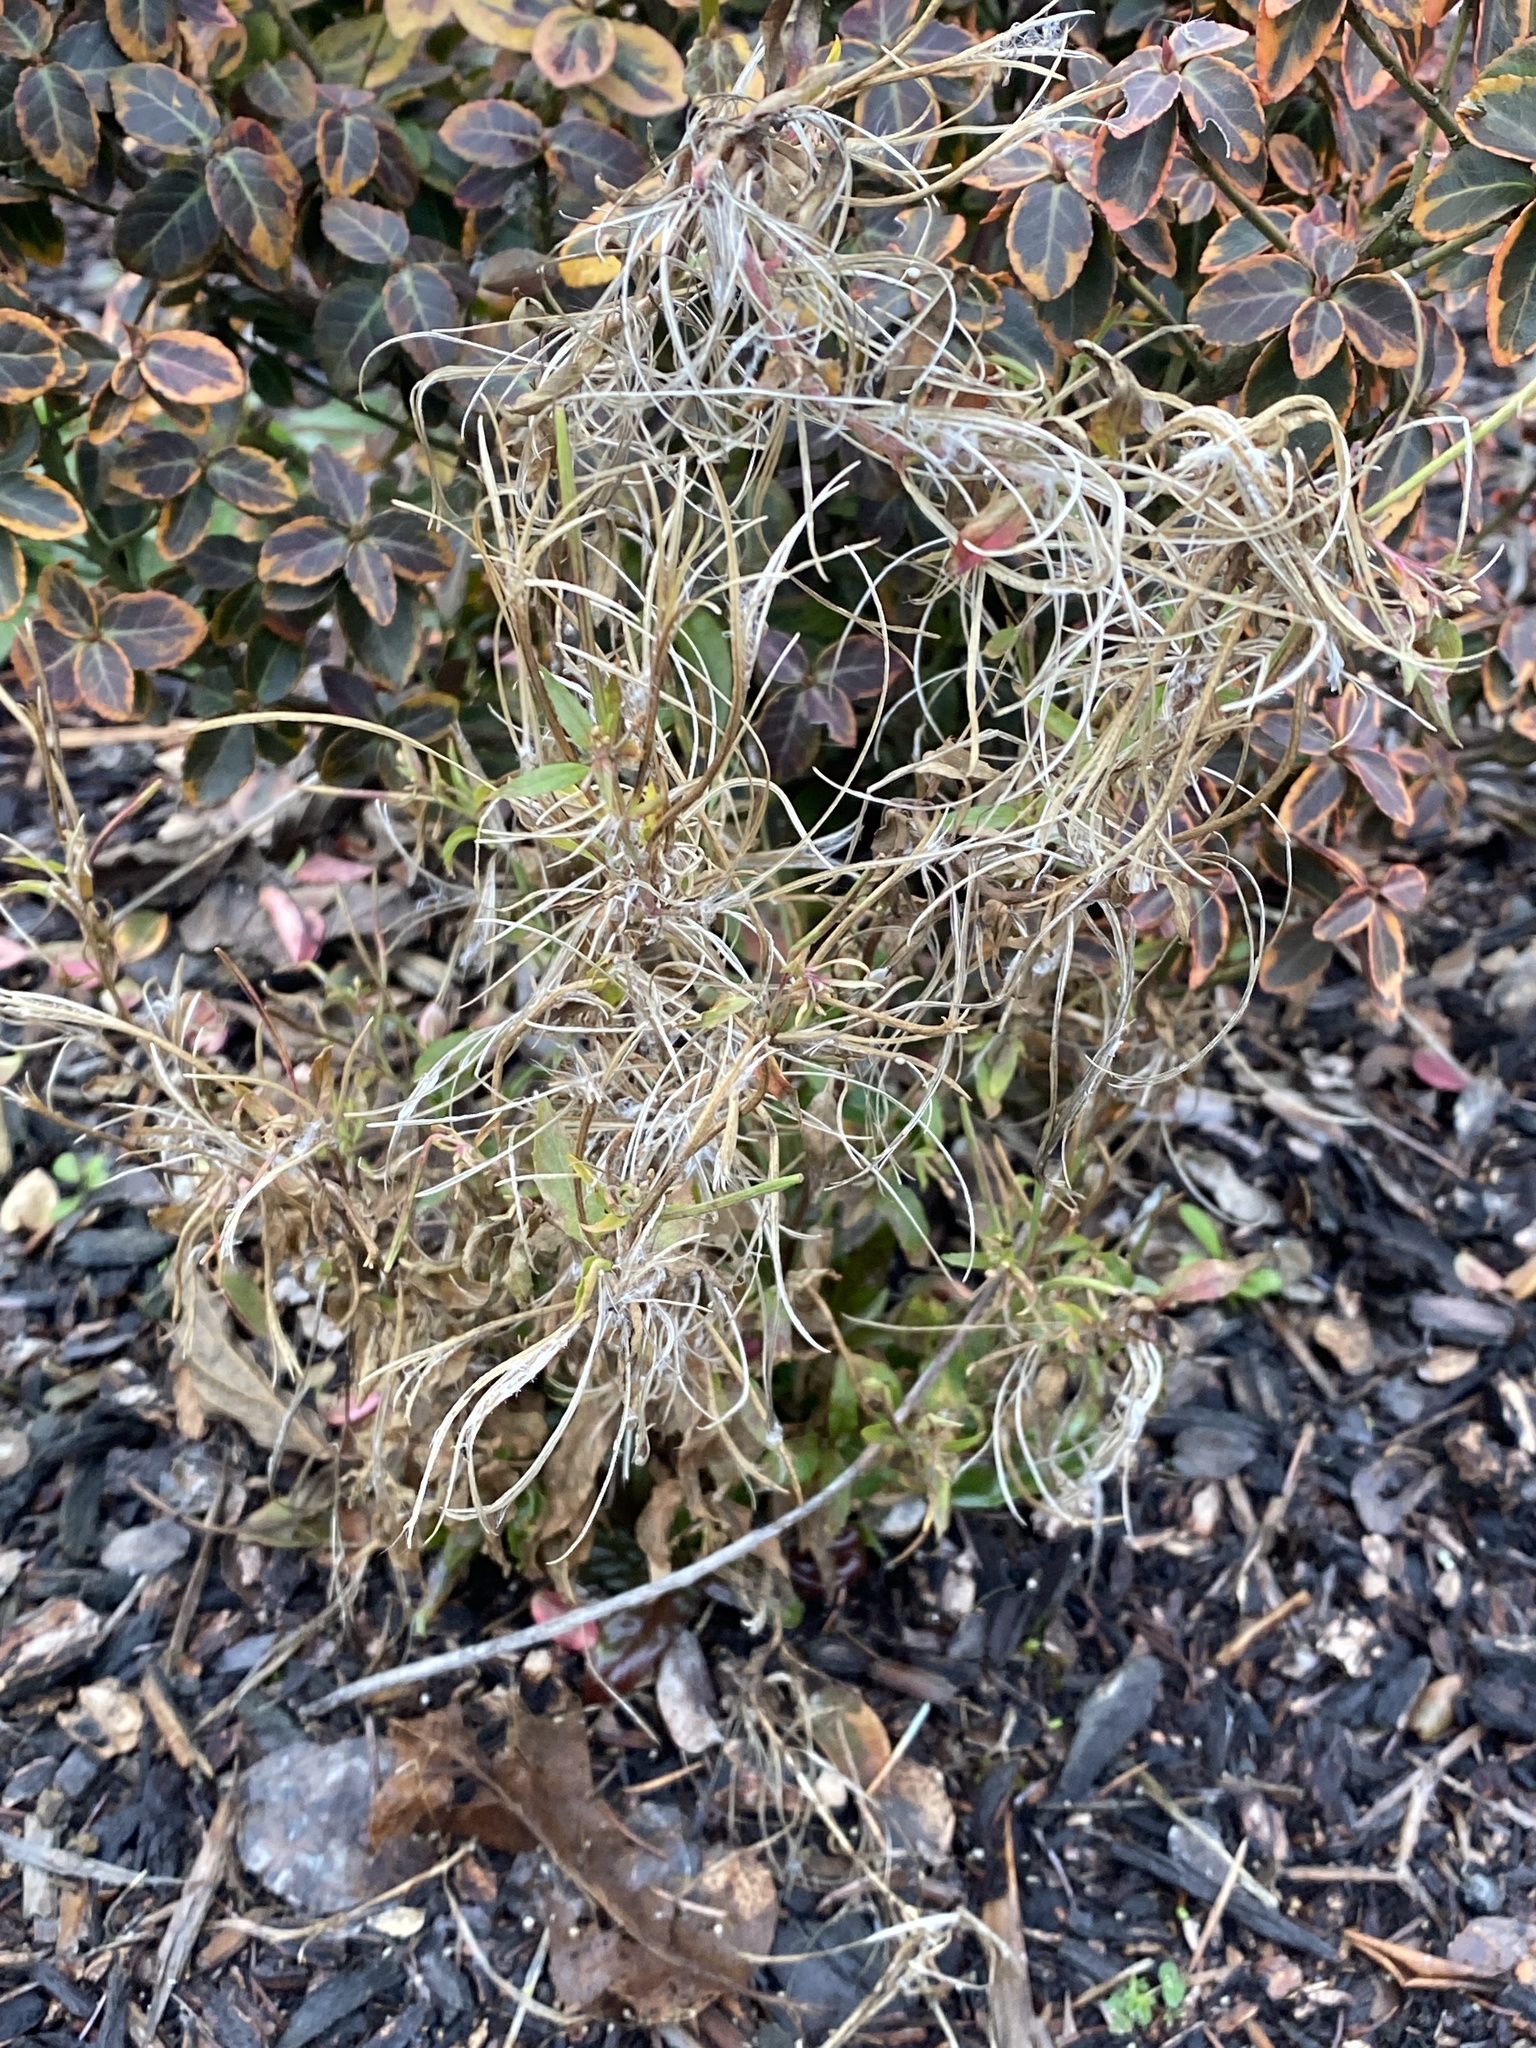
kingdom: Plantae
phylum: Tracheophyta
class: Magnoliopsida
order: Myrtales
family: Onagraceae
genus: Epilobium
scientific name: Epilobium ciliatum
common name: American willowherb
